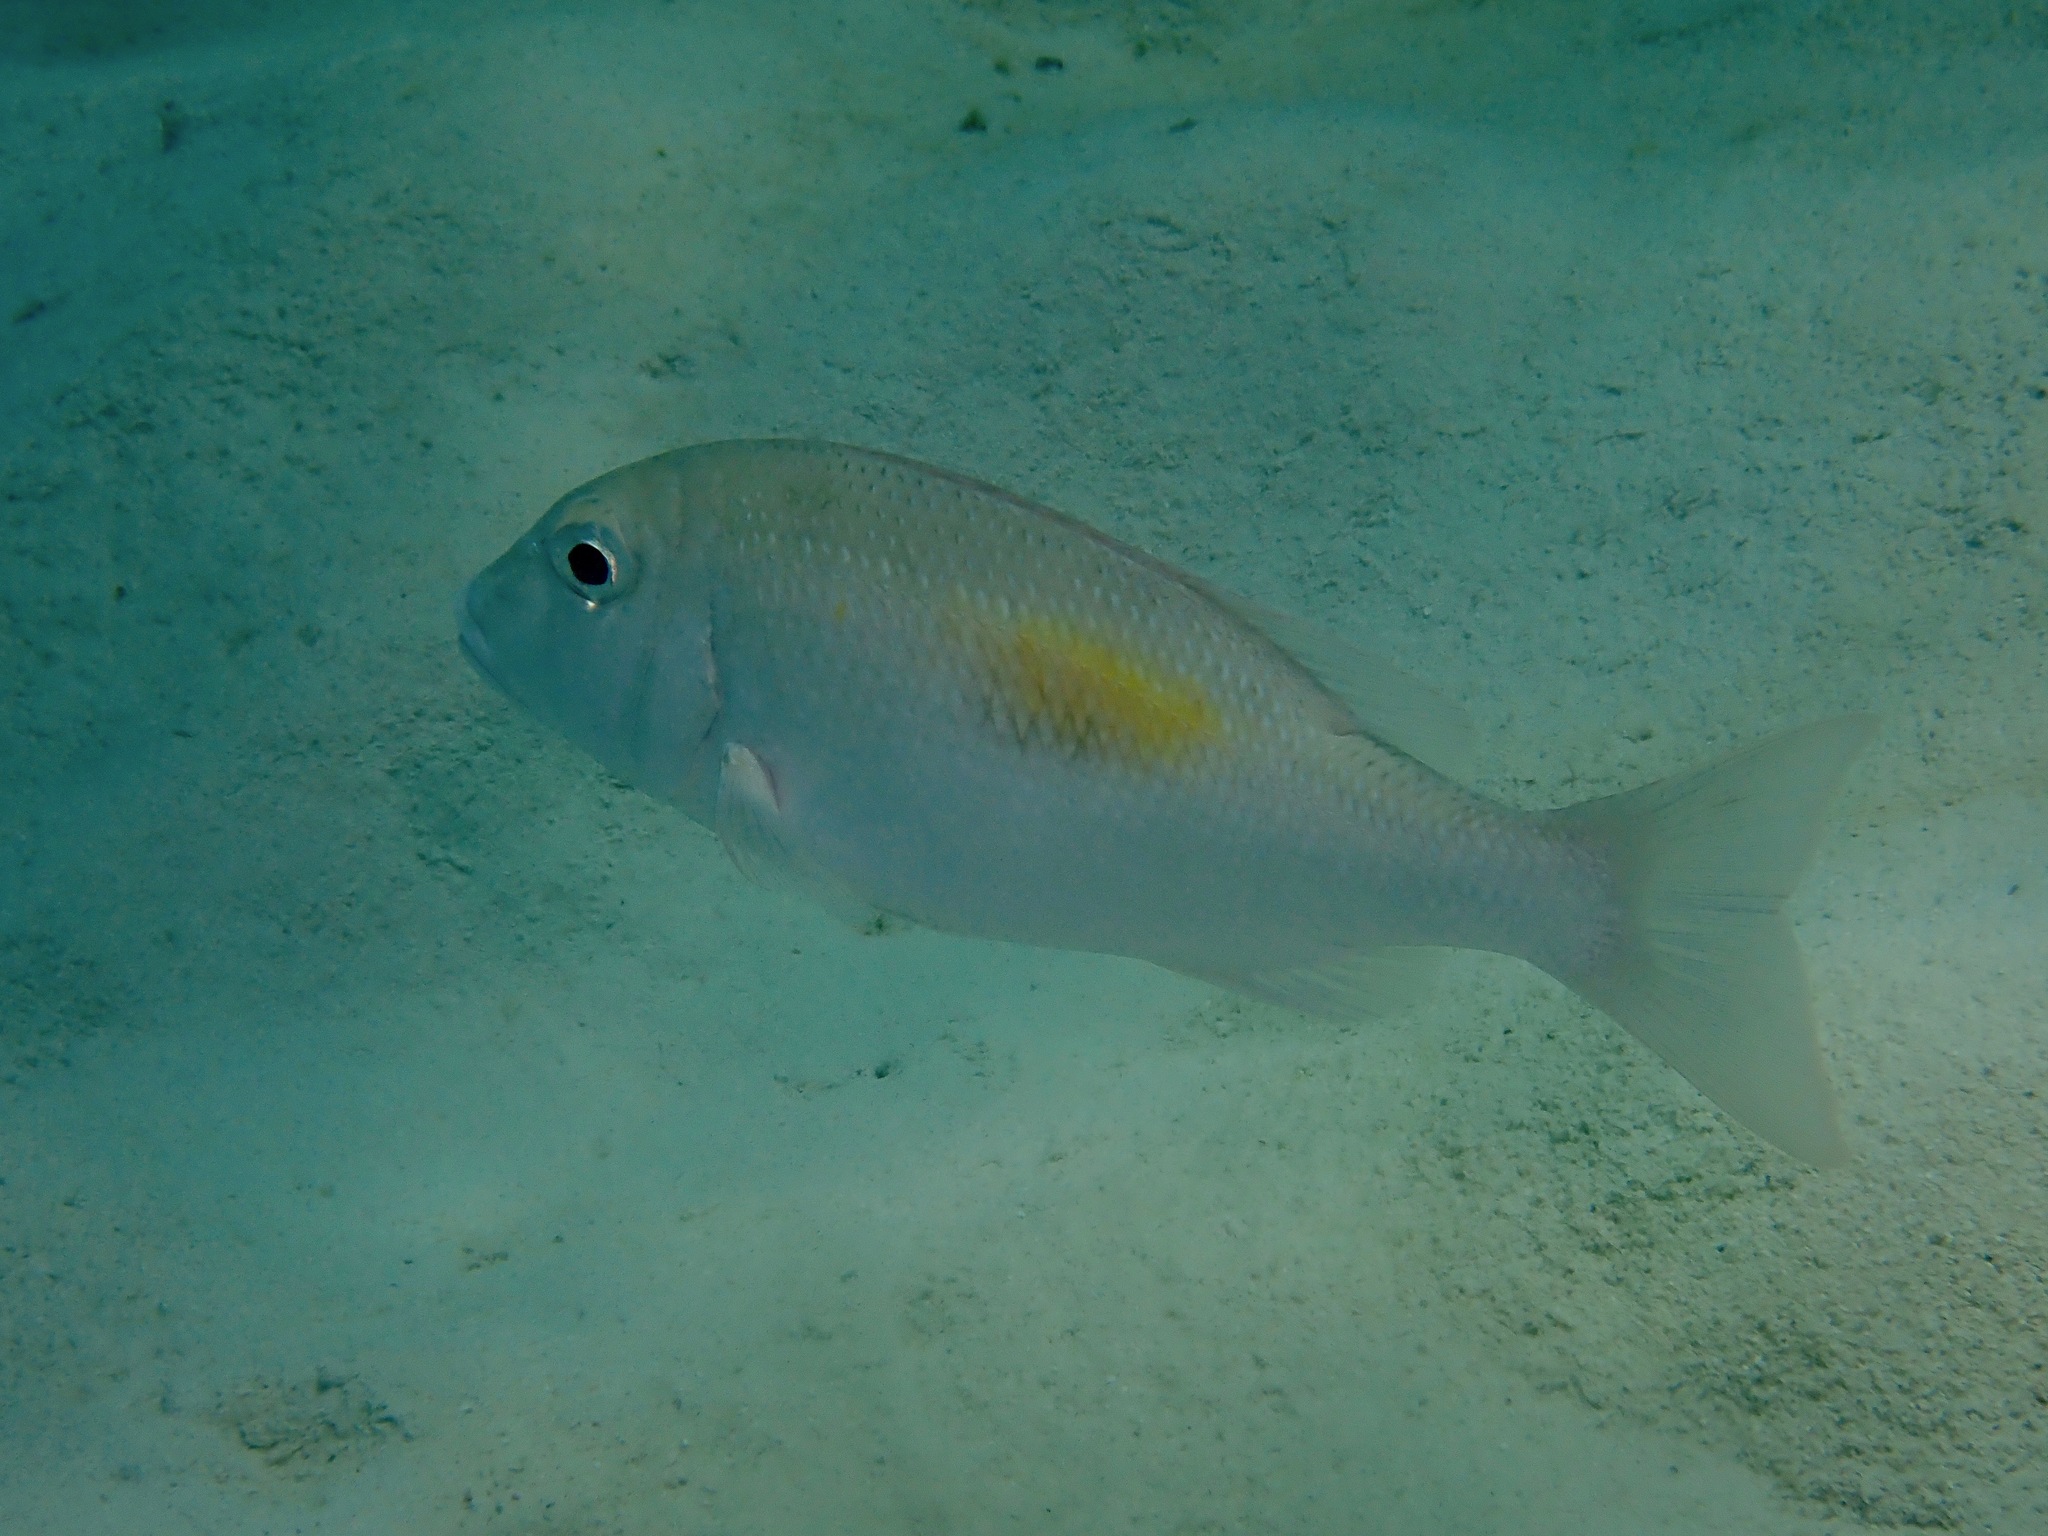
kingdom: Animalia
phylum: Chordata
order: Perciformes
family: Lethrinidae
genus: Lethrinus
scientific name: Lethrinus harak
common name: Blackspot emperor
